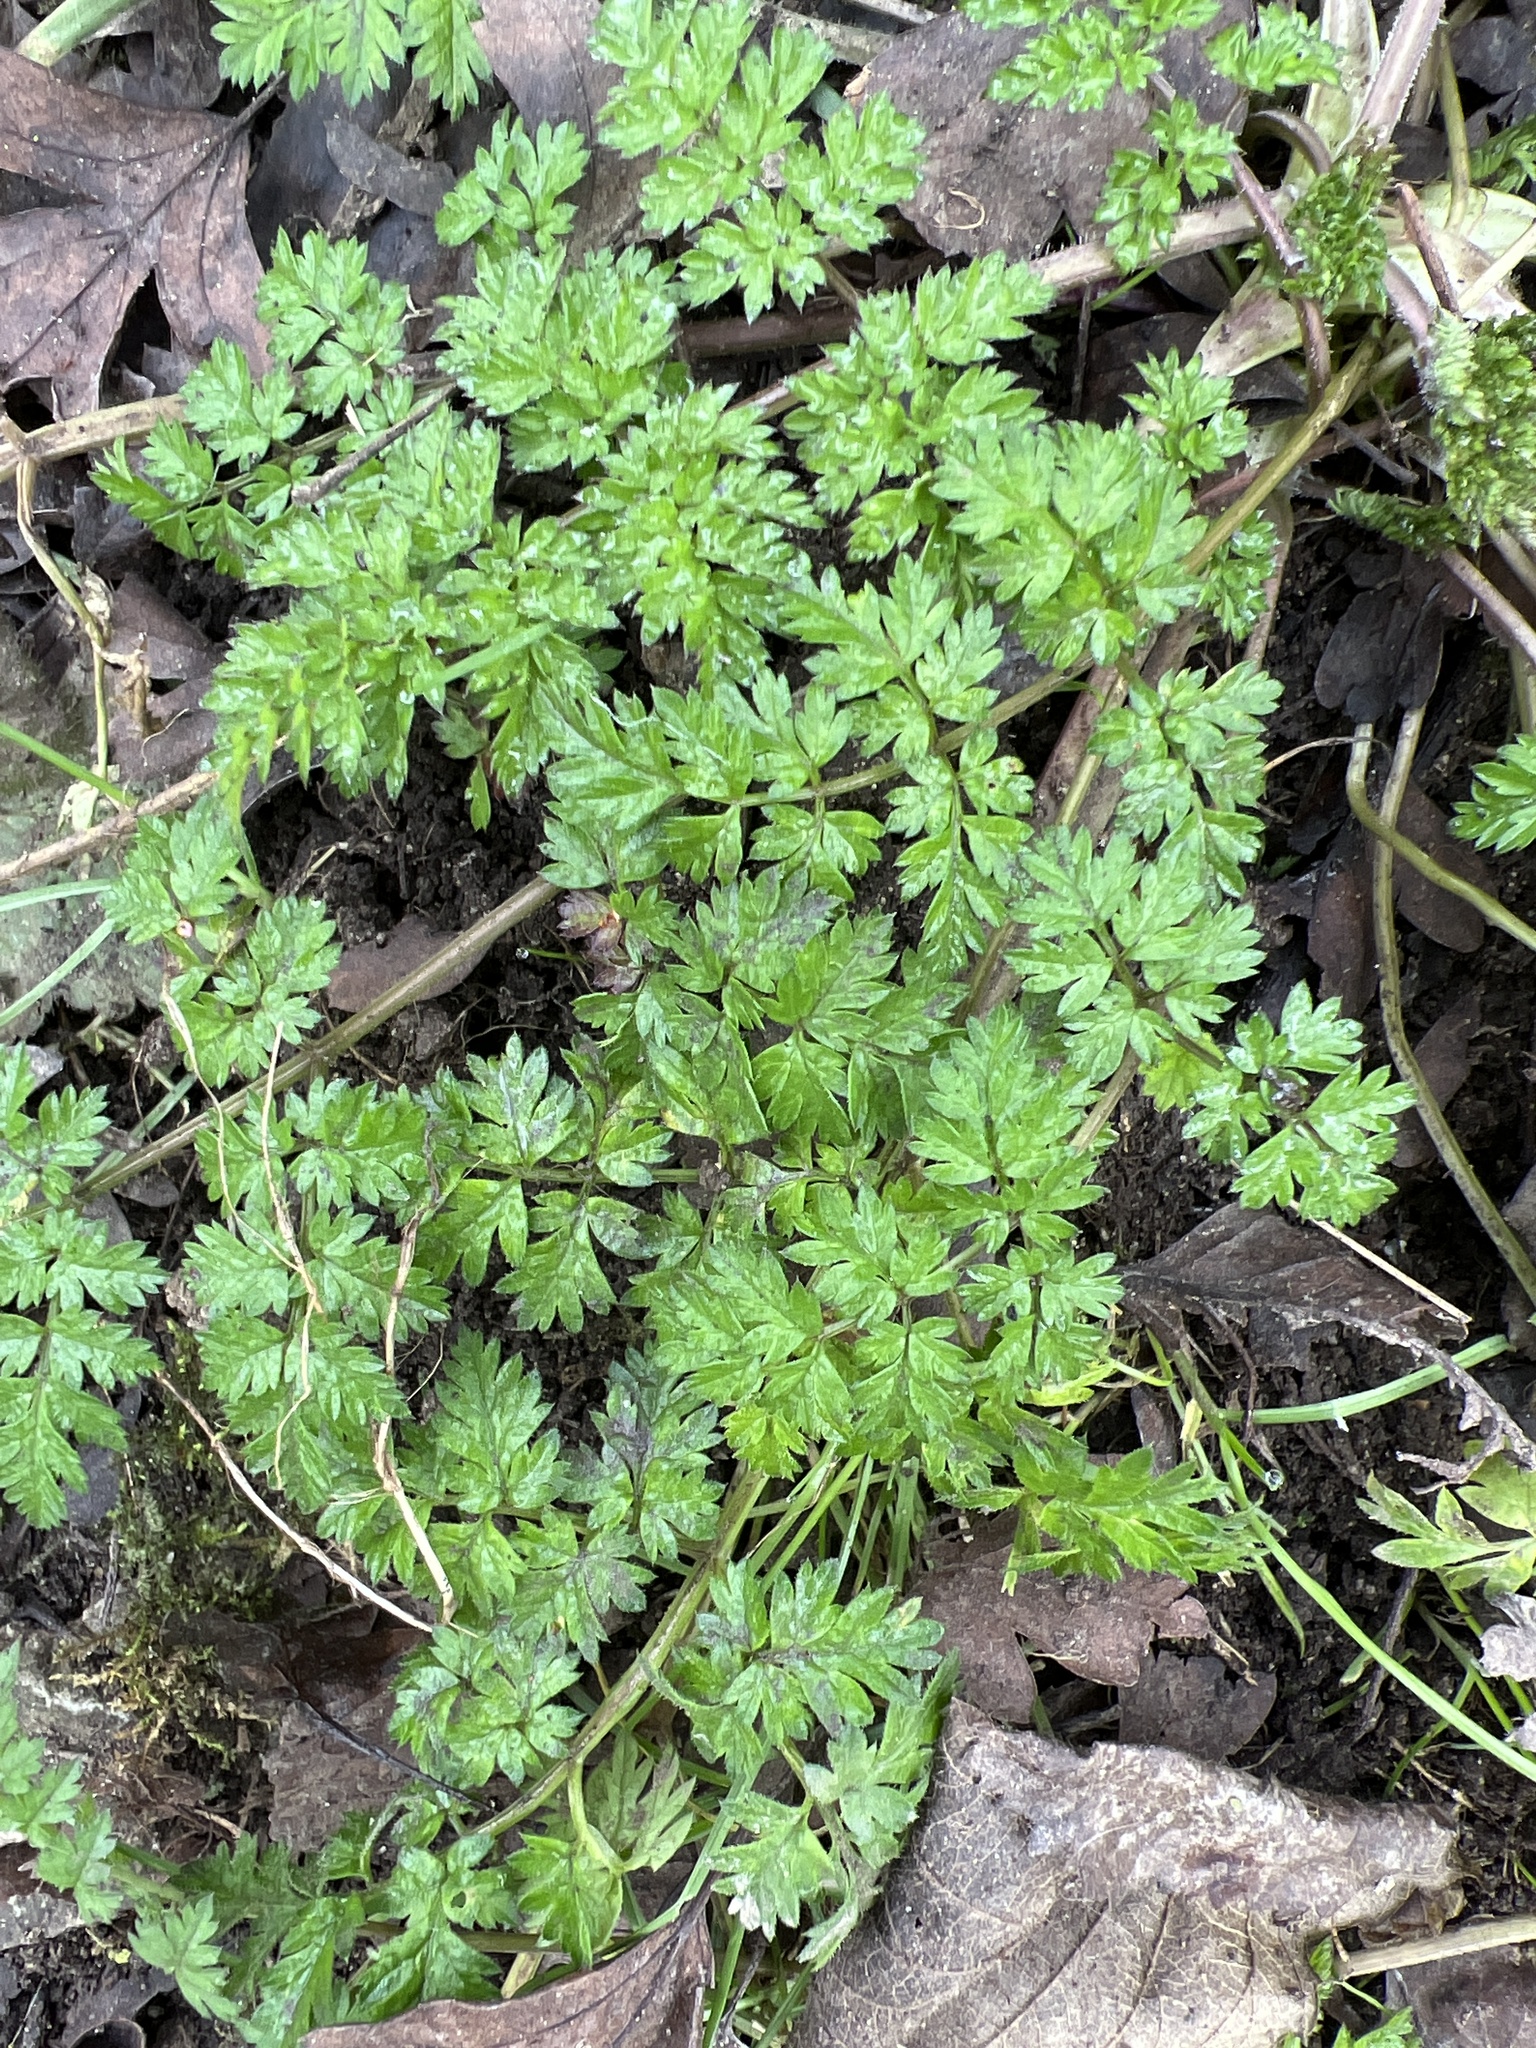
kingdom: Plantae
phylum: Tracheophyta
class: Magnoliopsida
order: Apiales
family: Apiaceae
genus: Anthriscus
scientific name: Anthriscus sylvestris
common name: Cow parsley
